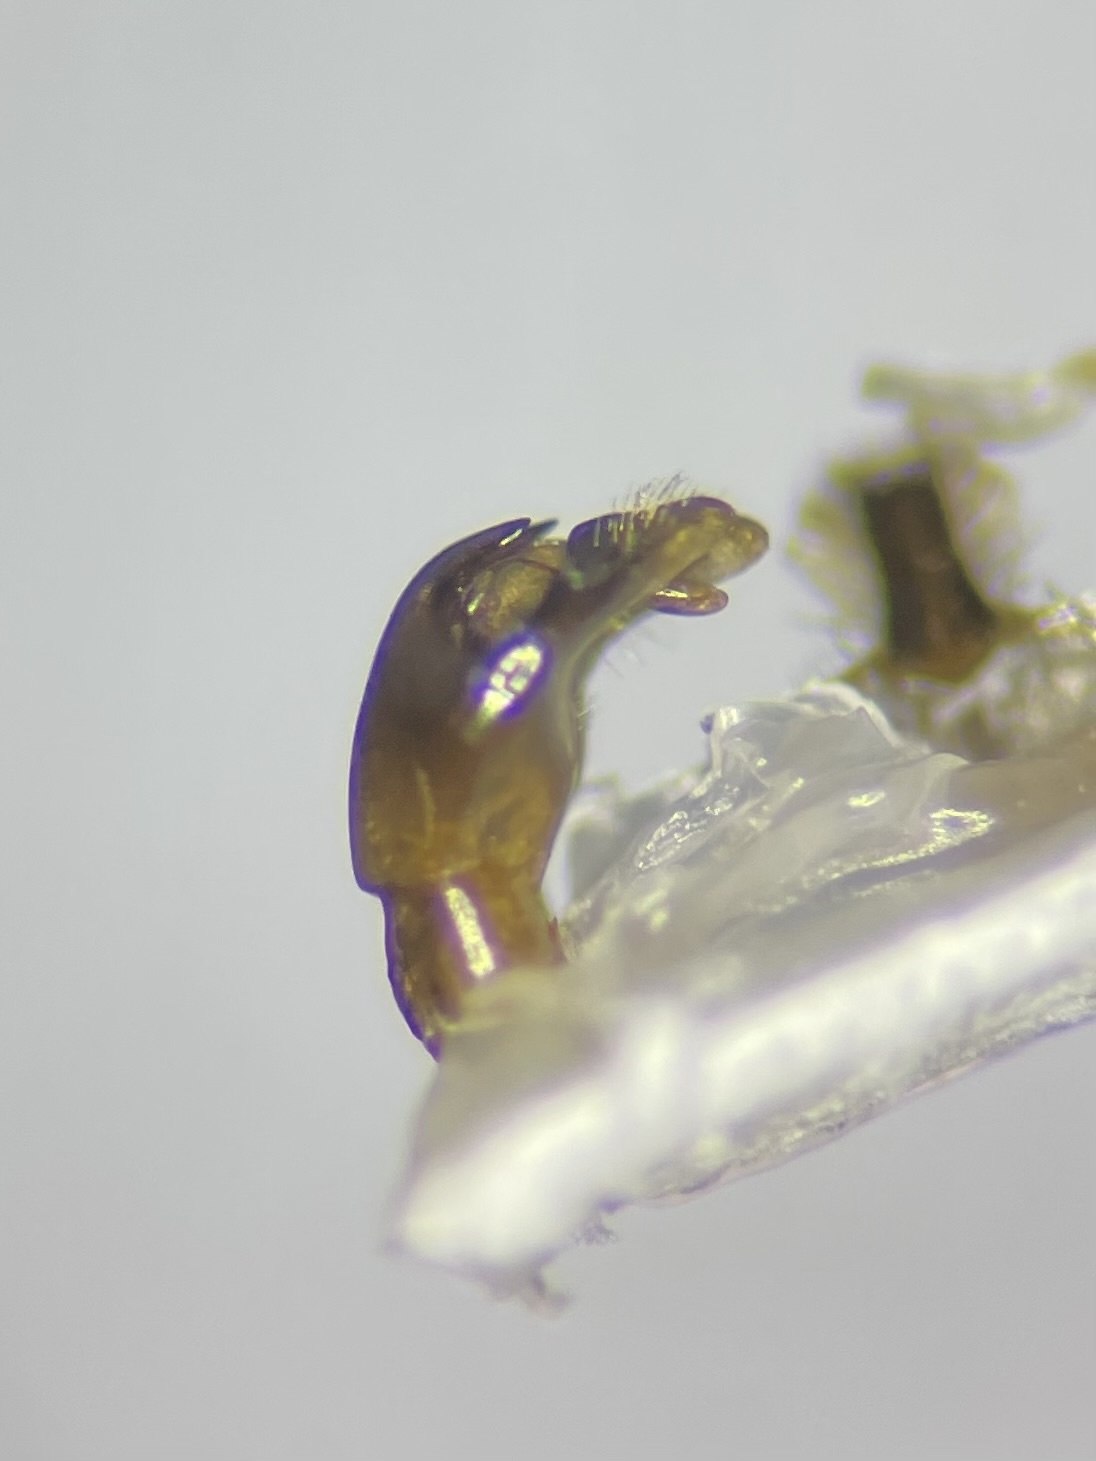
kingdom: Animalia
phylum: Arthropoda
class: Insecta
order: Hymenoptera
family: Andrenidae
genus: Andrena
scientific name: Andrena imitatrix
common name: Imitator miner bee
